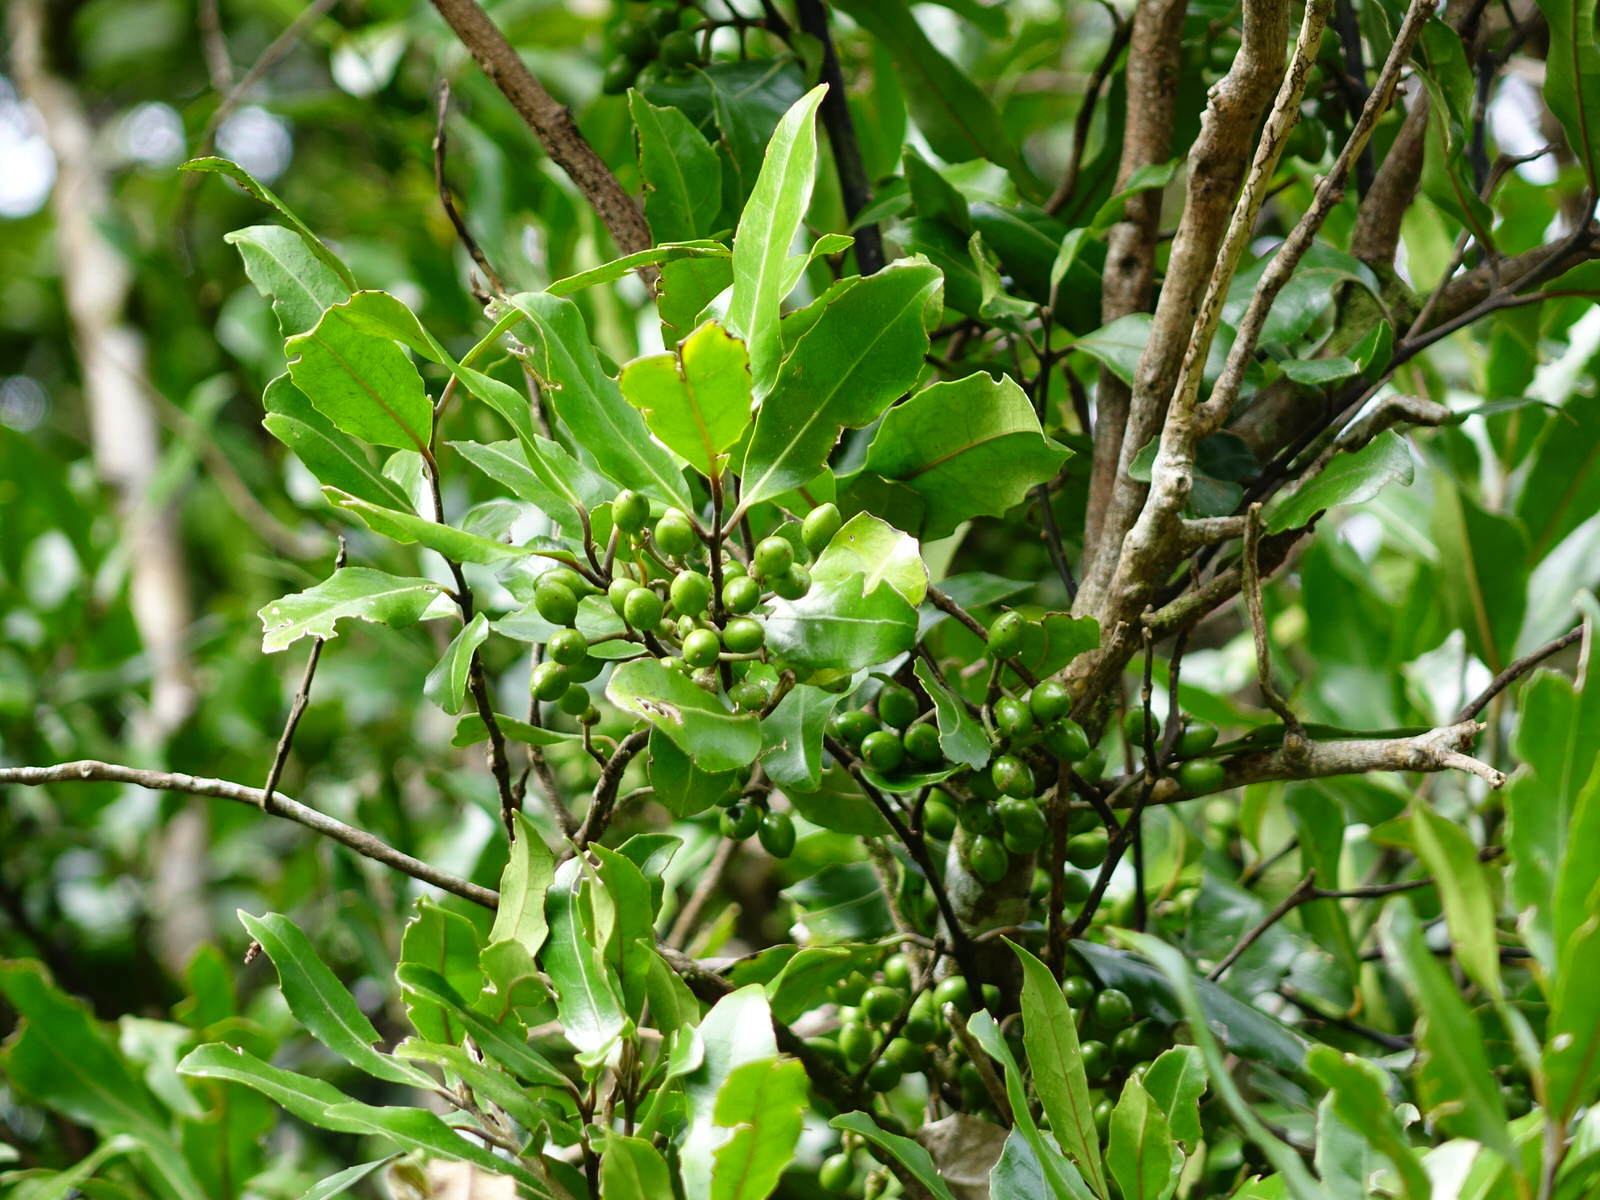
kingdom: Plantae
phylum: Tracheophyta
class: Magnoliopsida
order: Laurales
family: Monimiaceae
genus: Hedycarya
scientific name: Hedycarya arborea
